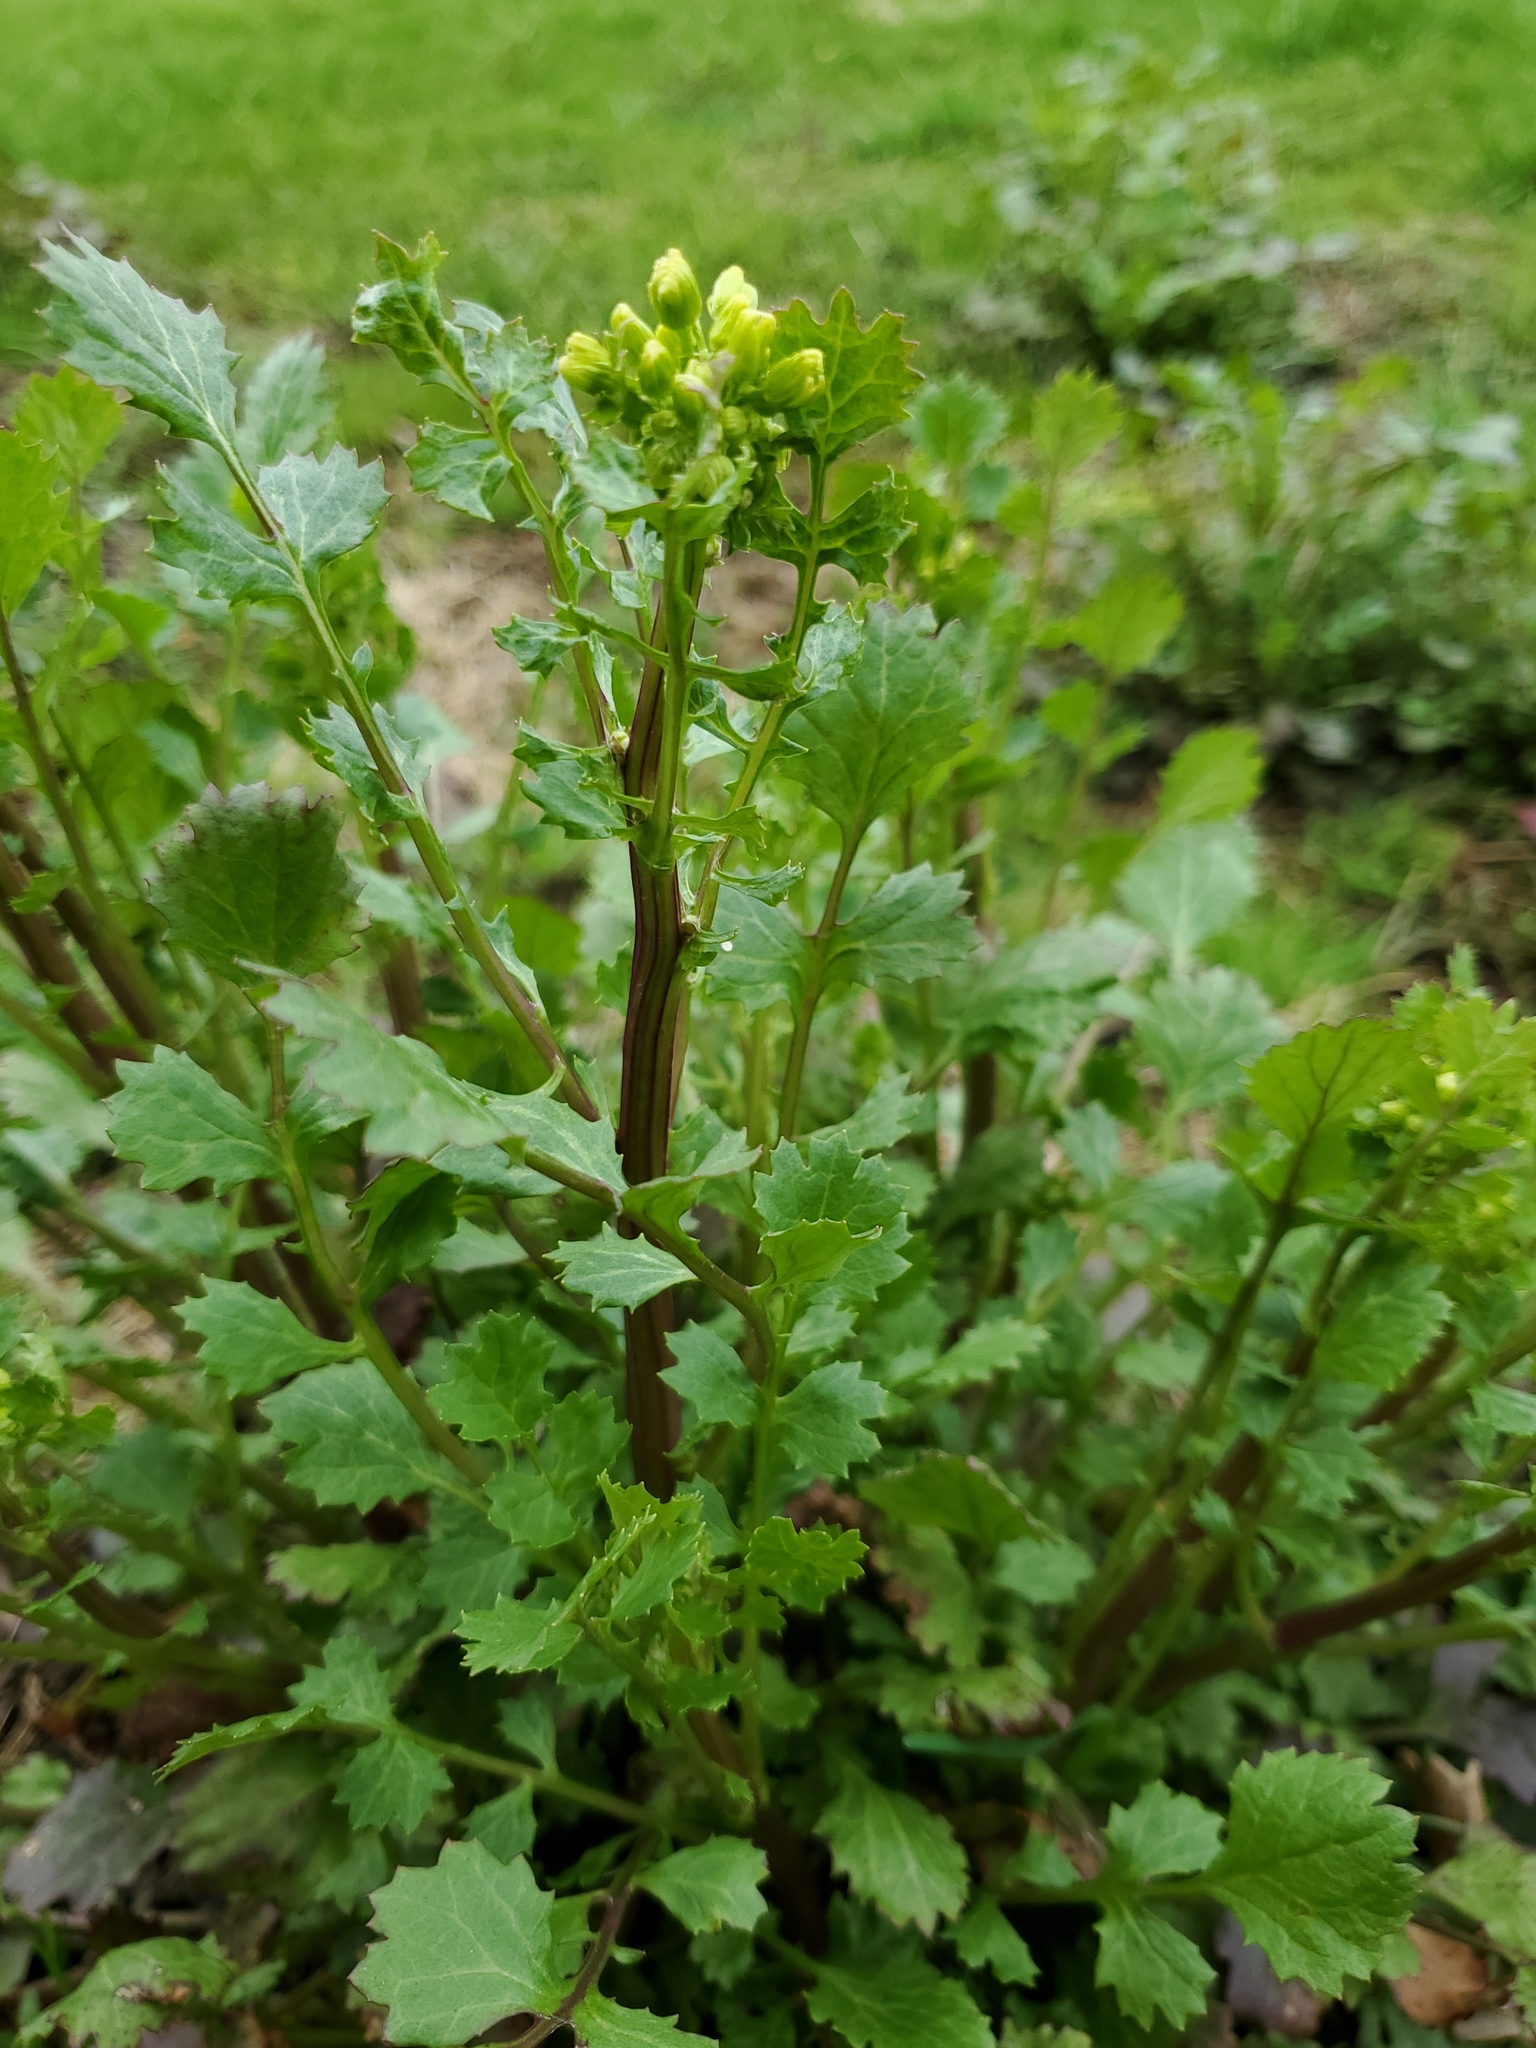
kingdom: Plantae
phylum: Tracheophyta
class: Magnoliopsida
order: Asterales
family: Asteraceae
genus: Packera
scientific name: Packera glabella
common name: Butterweed
